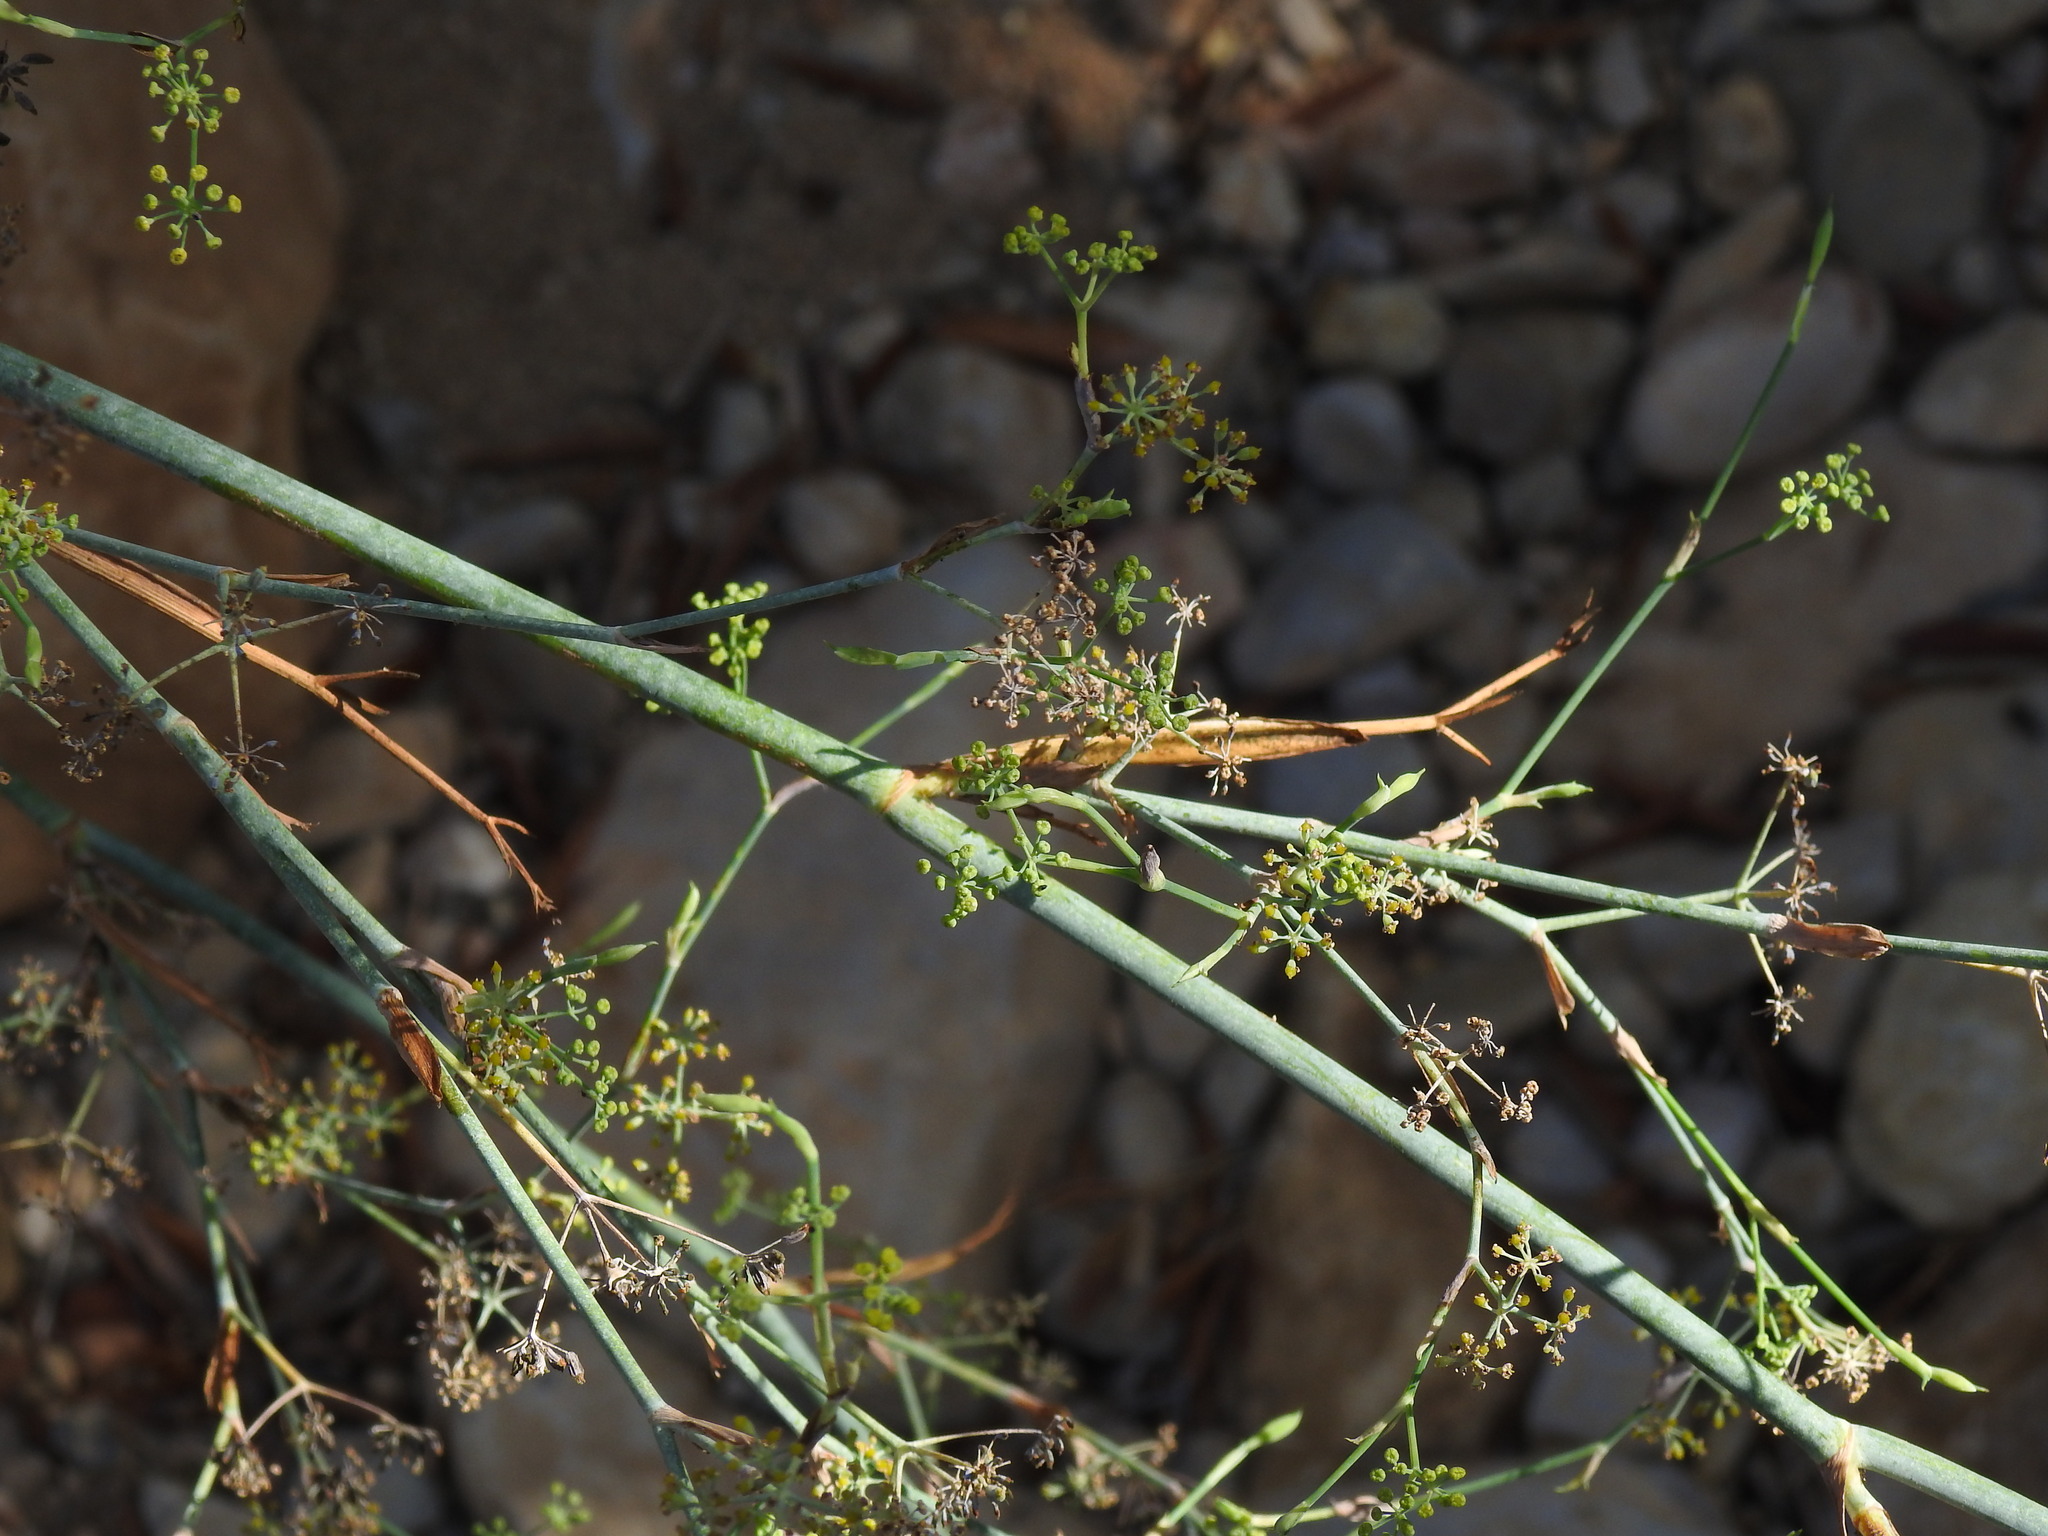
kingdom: Plantae
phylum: Tracheophyta
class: Magnoliopsida
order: Apiales
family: Apiaceae
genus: Foeniculum
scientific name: Foeniculum vulgare
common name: Fennel
